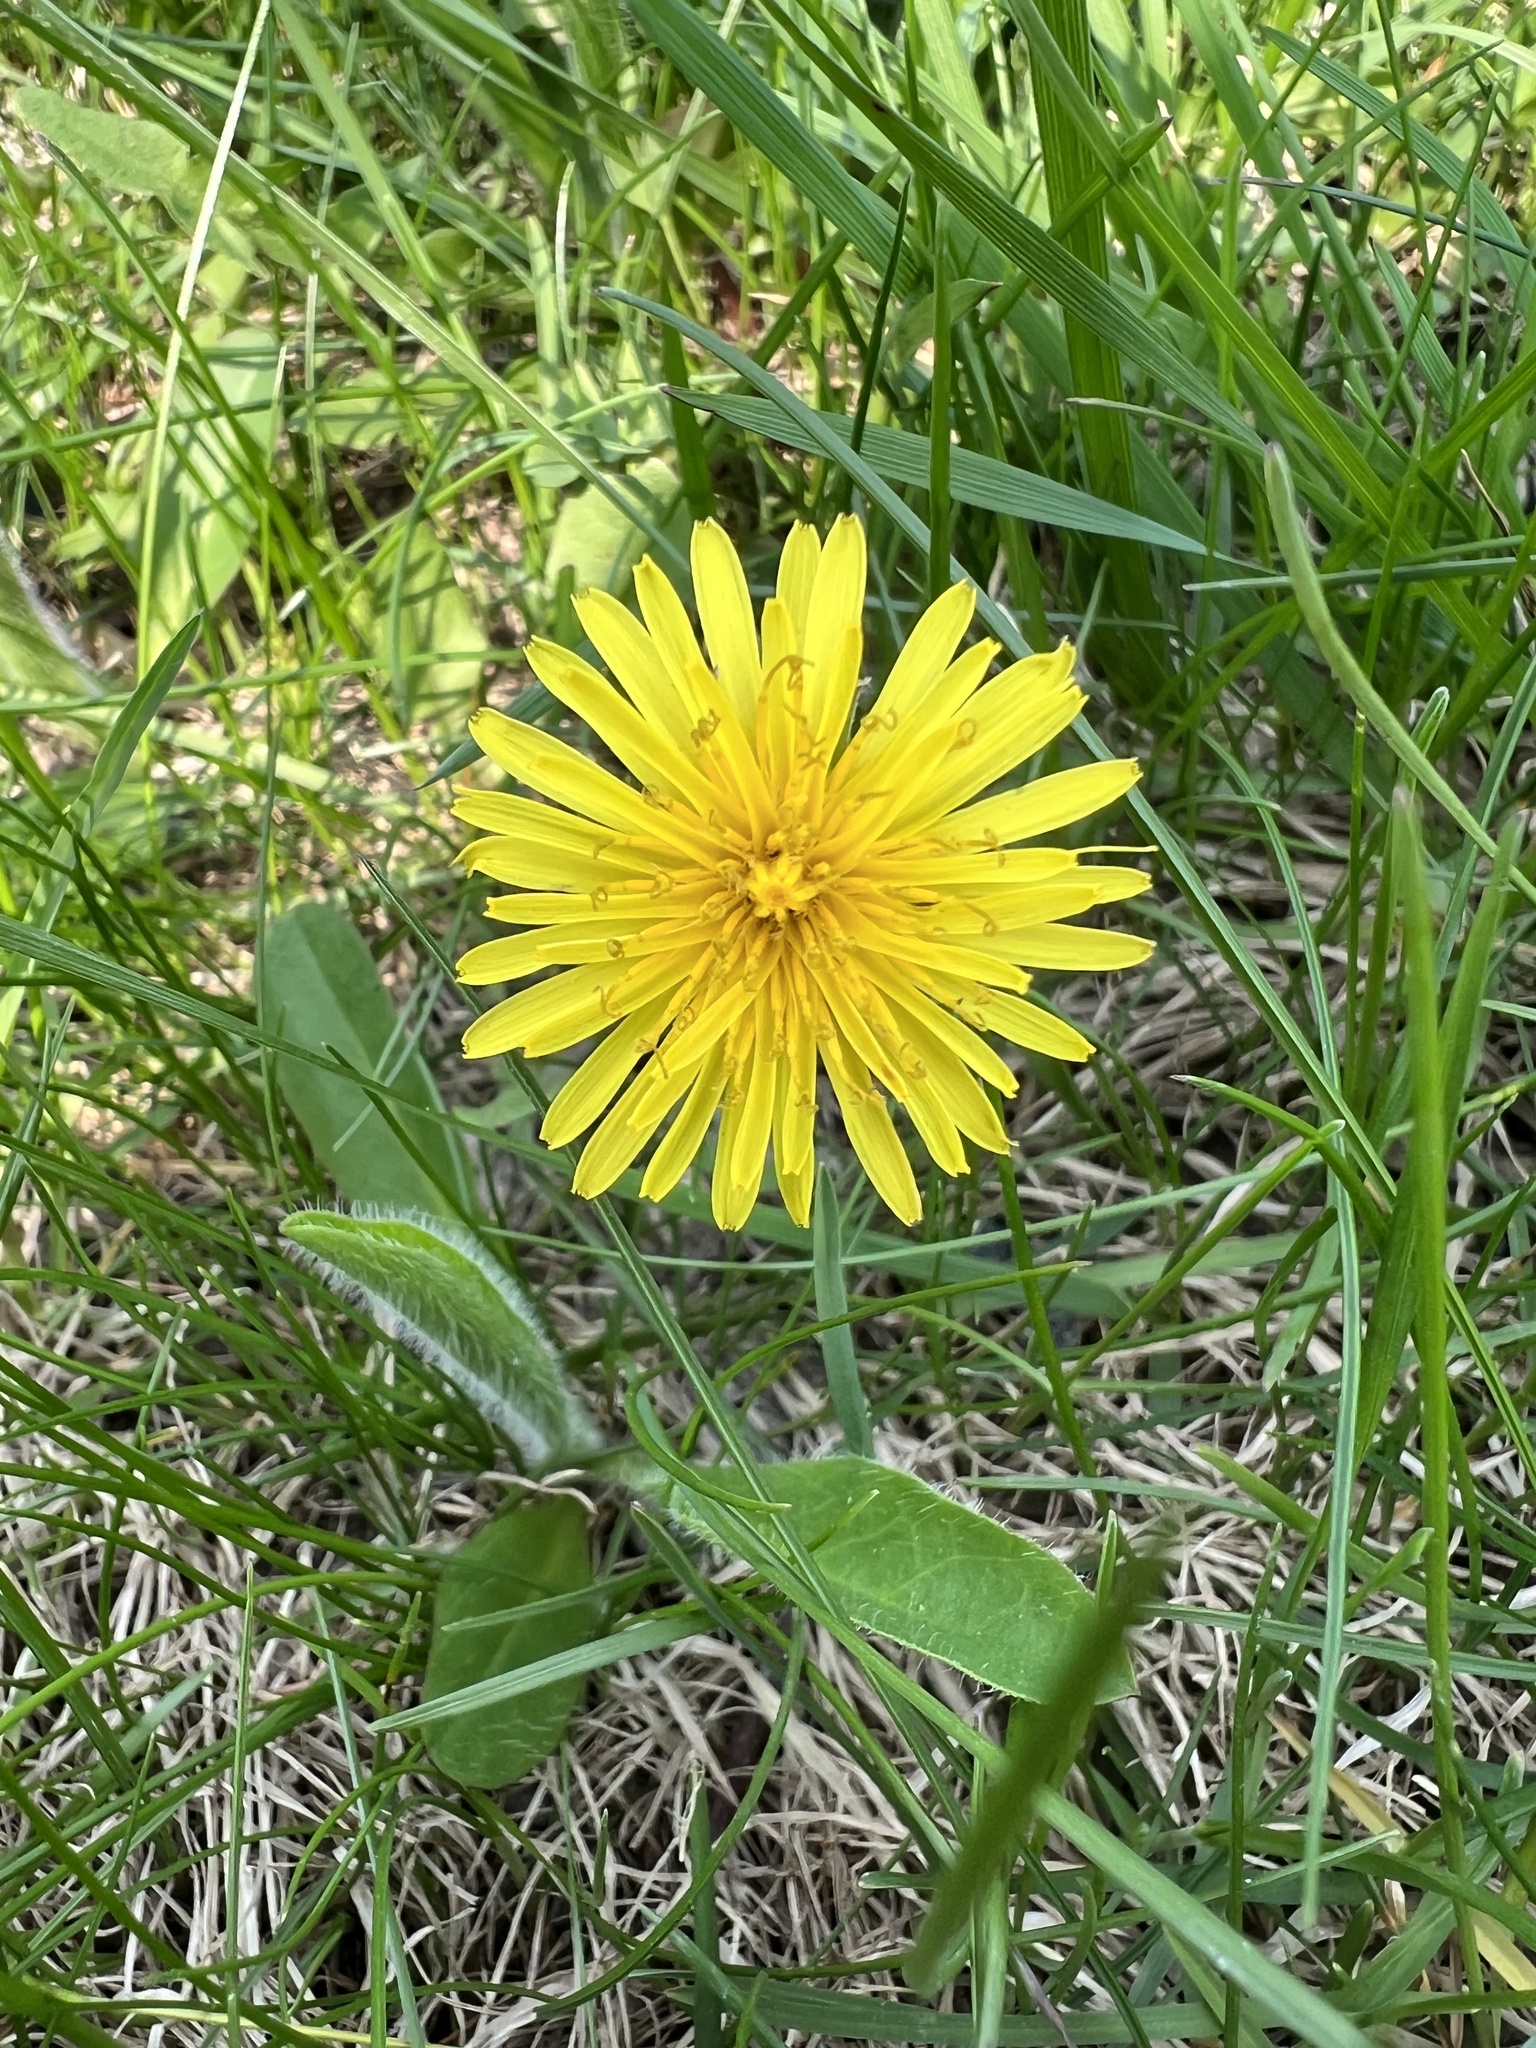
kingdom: Plantae
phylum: Tracheophyta
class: Magnoliopsida
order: Asterales
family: Asteraceae
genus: Taraxacum
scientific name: Taraxacum officinale
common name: Common dandelion
